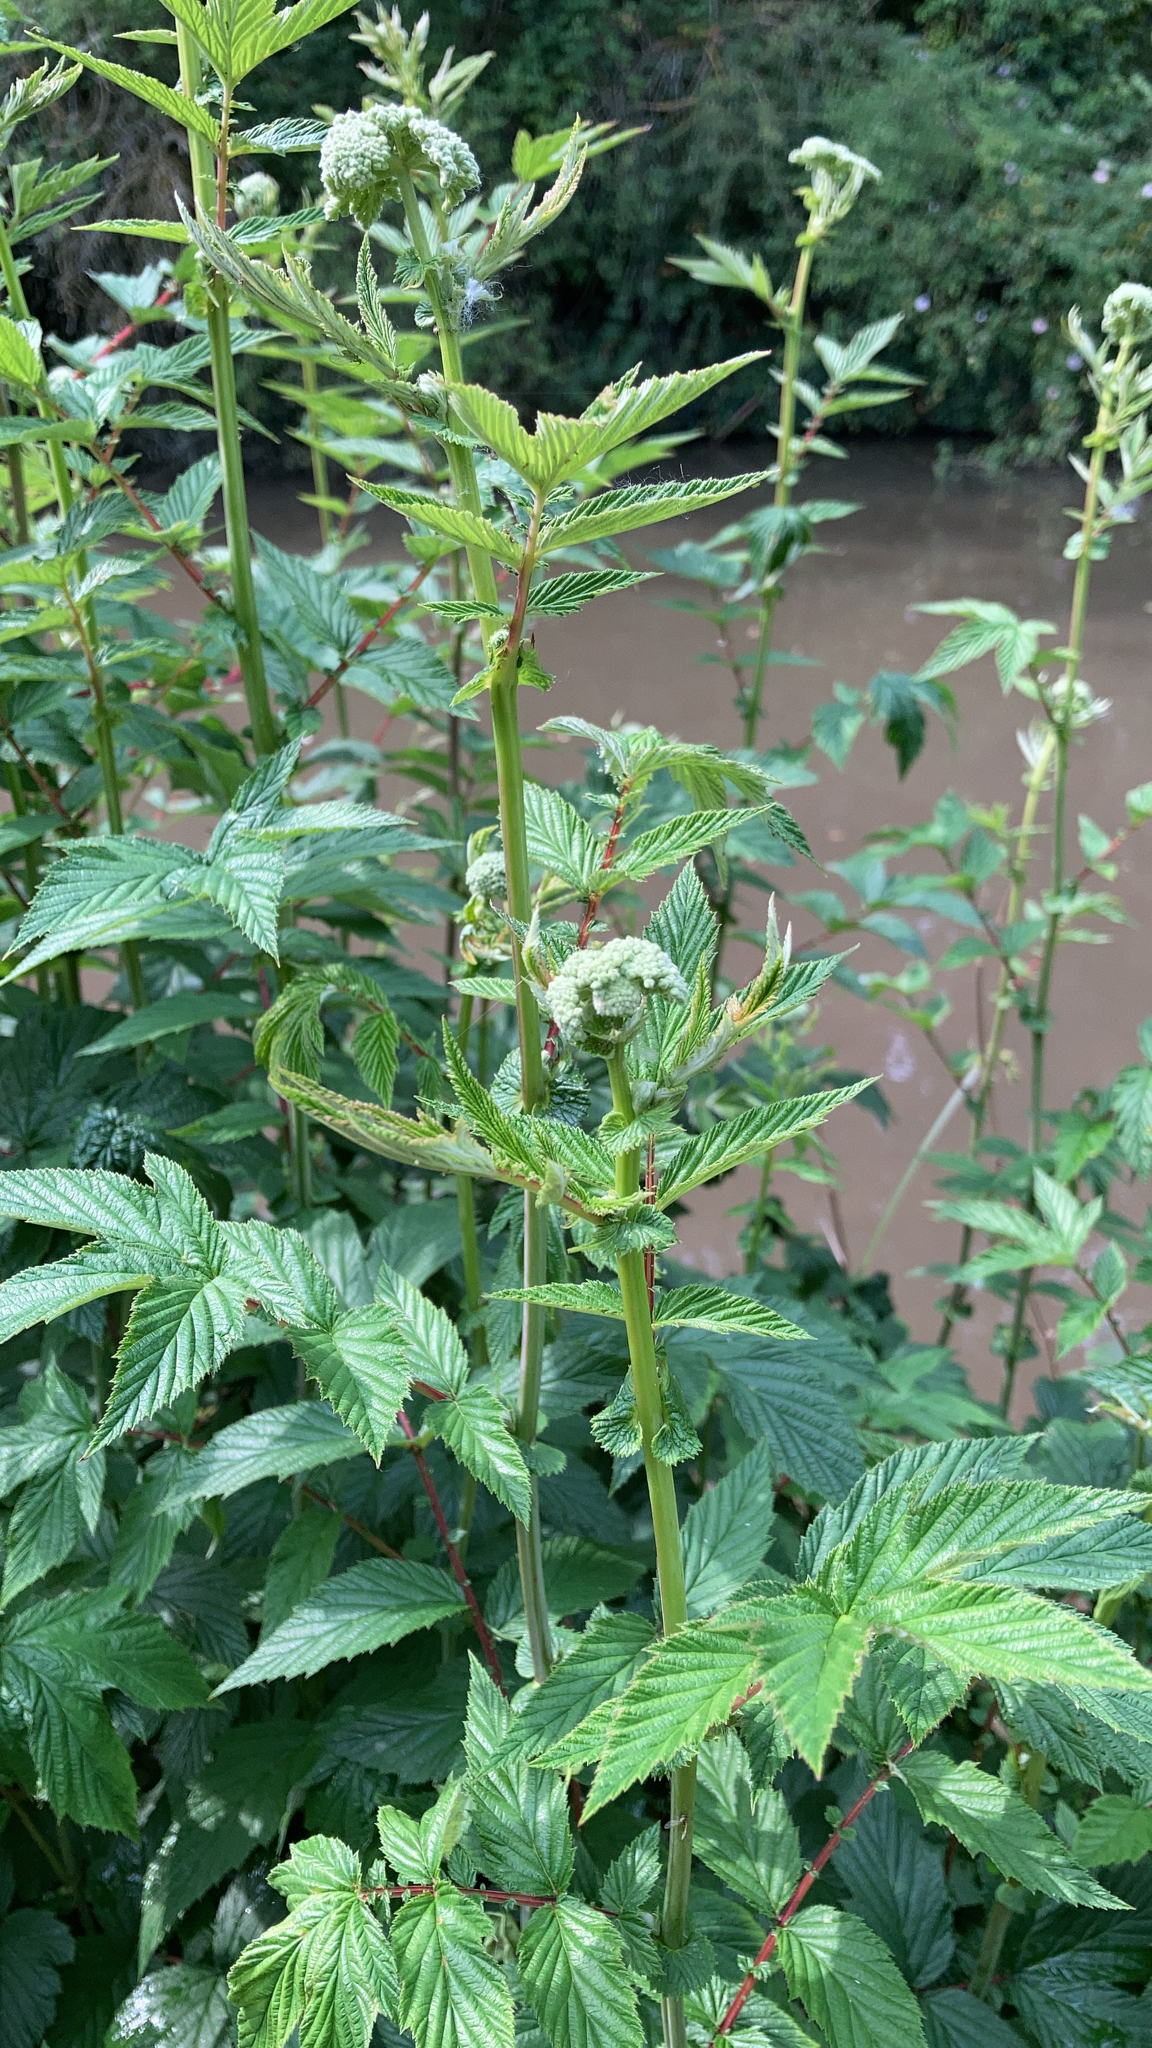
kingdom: Plantae
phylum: Tracheophyta
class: Magnoliopsida
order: Rosales
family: Rosaceae
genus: Filipendula
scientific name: Filipendula ulmaria
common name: Meadowsweet
